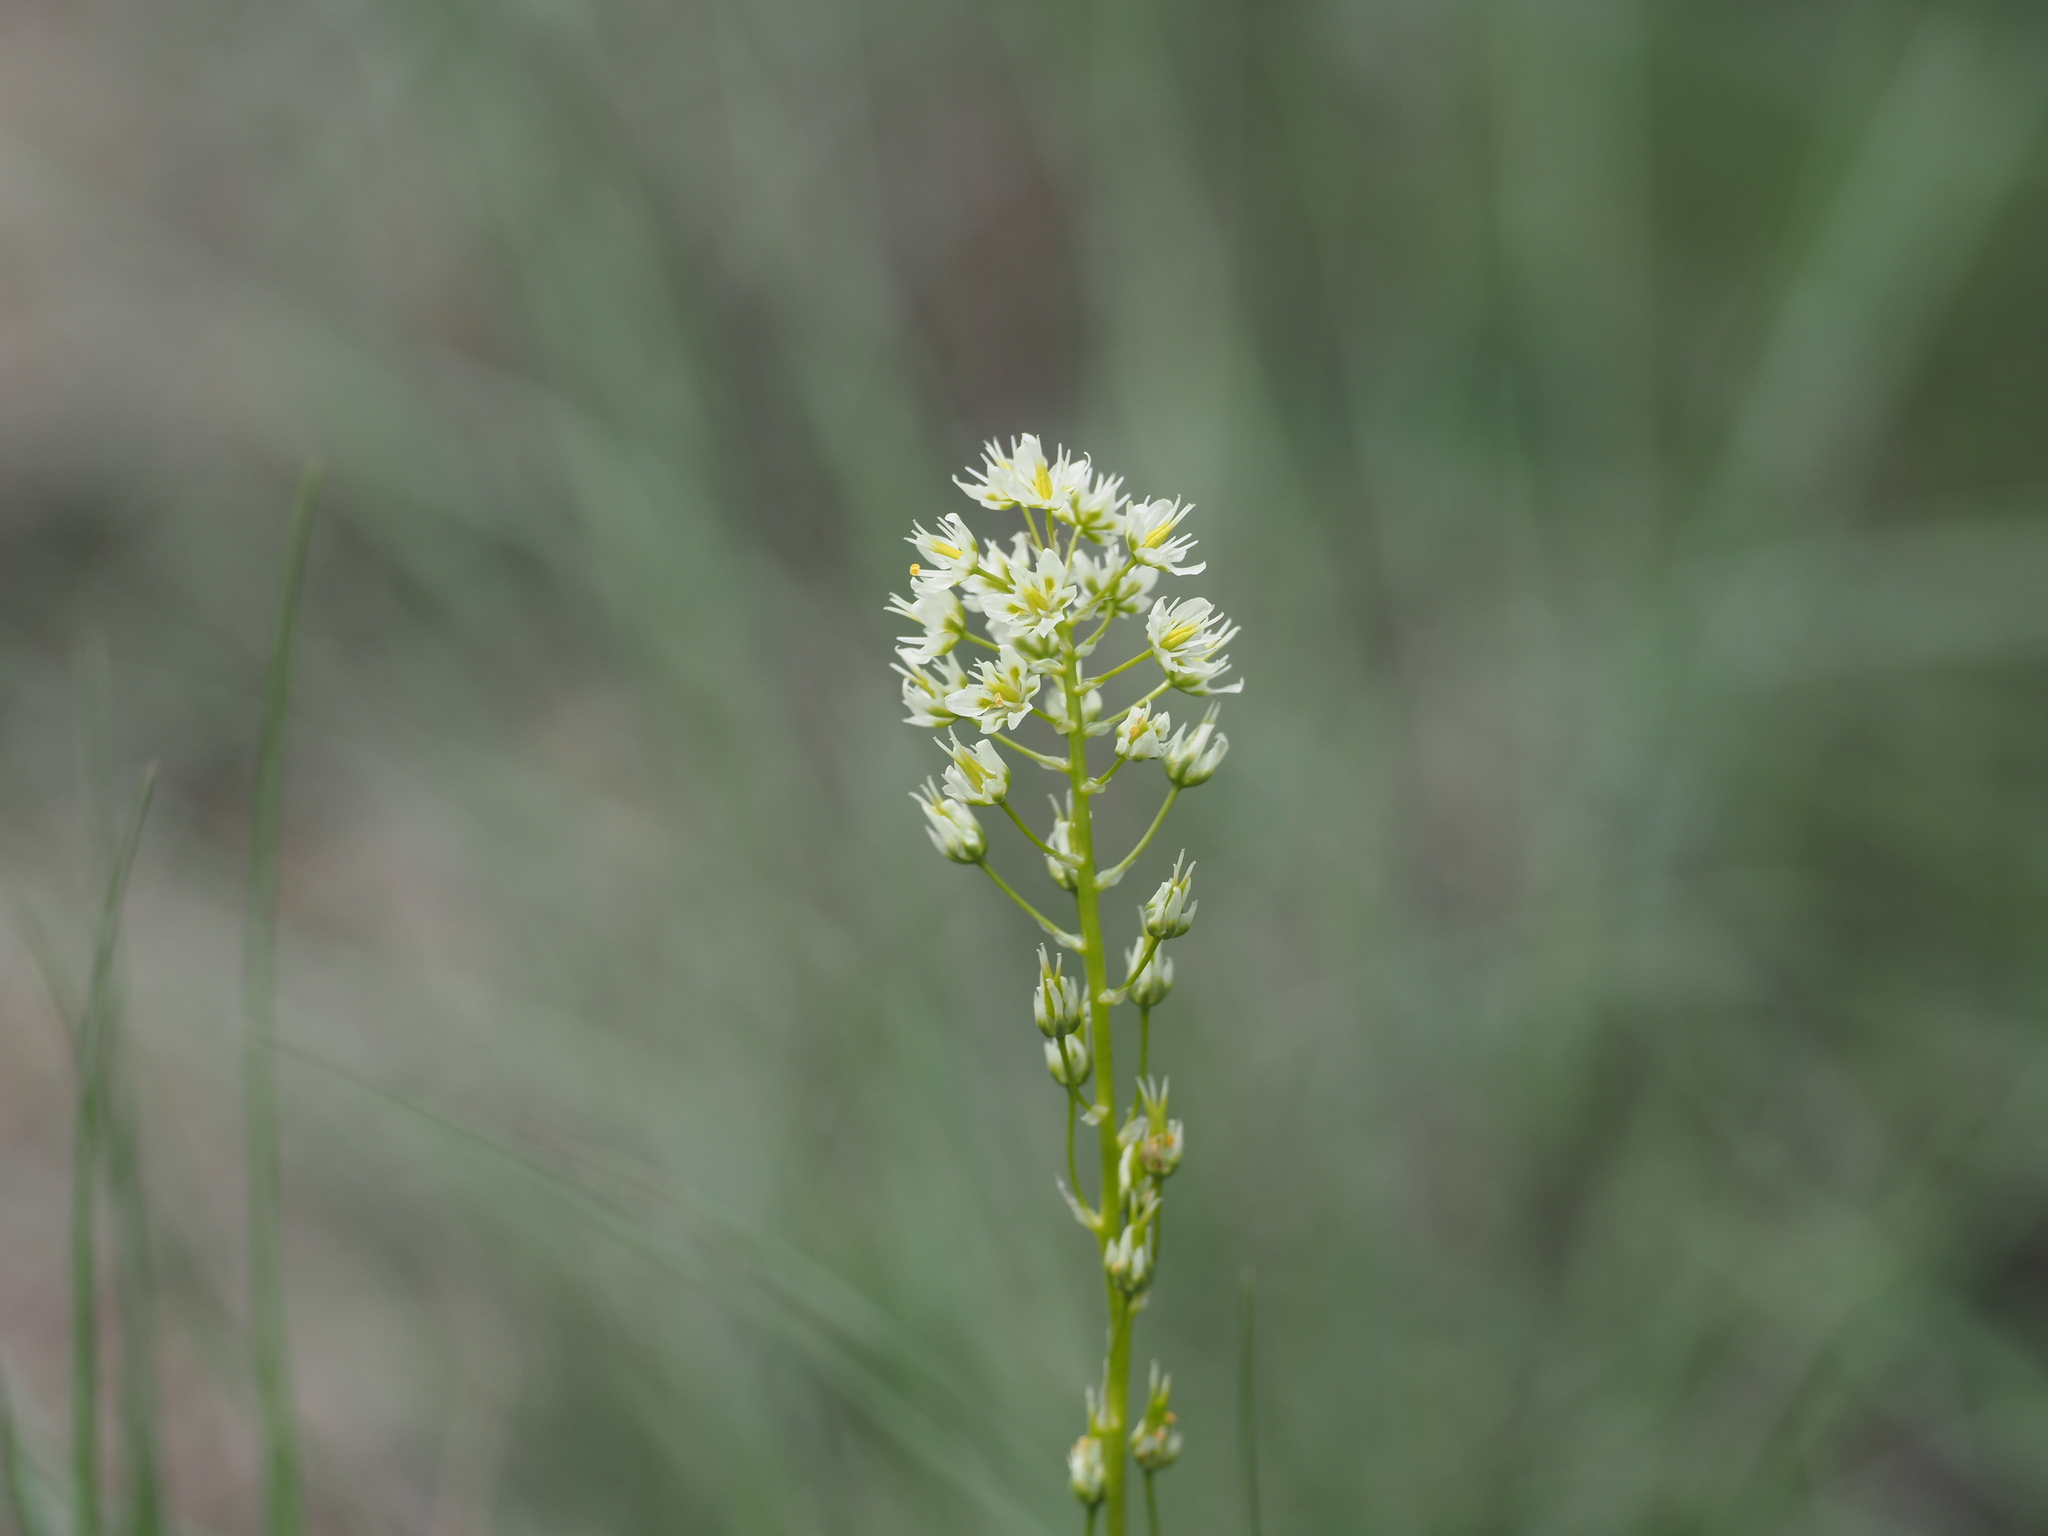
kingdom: Plantae
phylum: Tracheophyta
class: Liliopsida
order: Liliales
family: Melanthiaceae
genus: Toxicoscordion
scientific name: Toxicoscordion venenosum
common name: Meadow death camas
